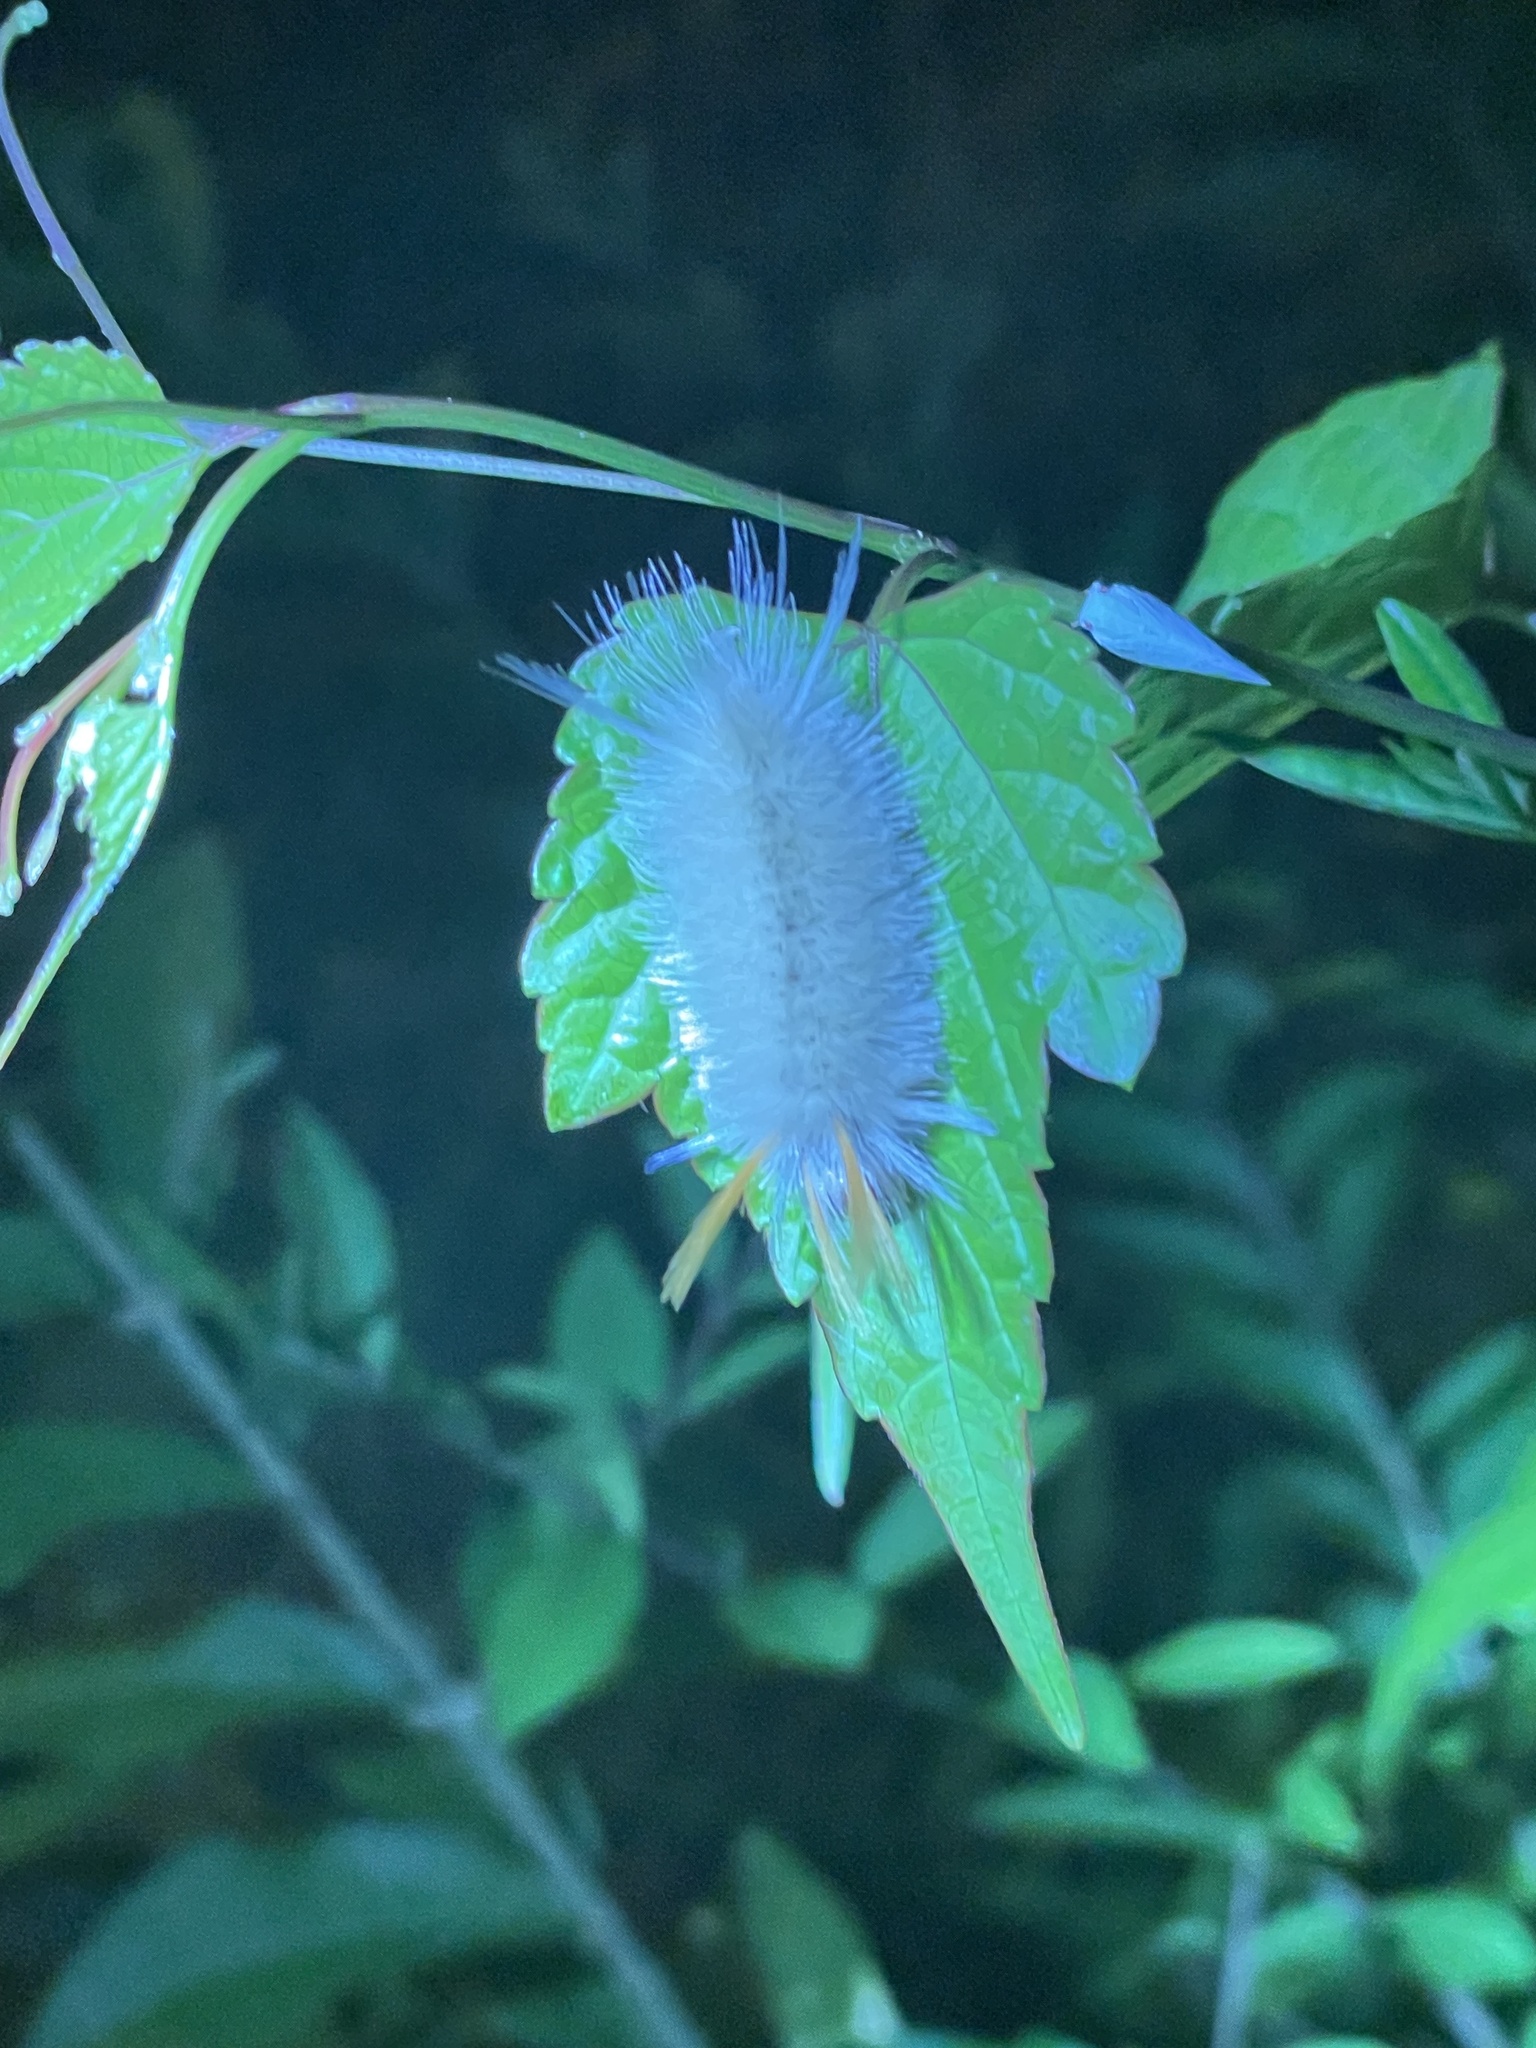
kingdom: Animalia
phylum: Arthropoda
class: Insecta
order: Lepidoptera
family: Erebidae
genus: Halysidota
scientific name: Halysidota harrisii
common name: Sycamore tussock moth
